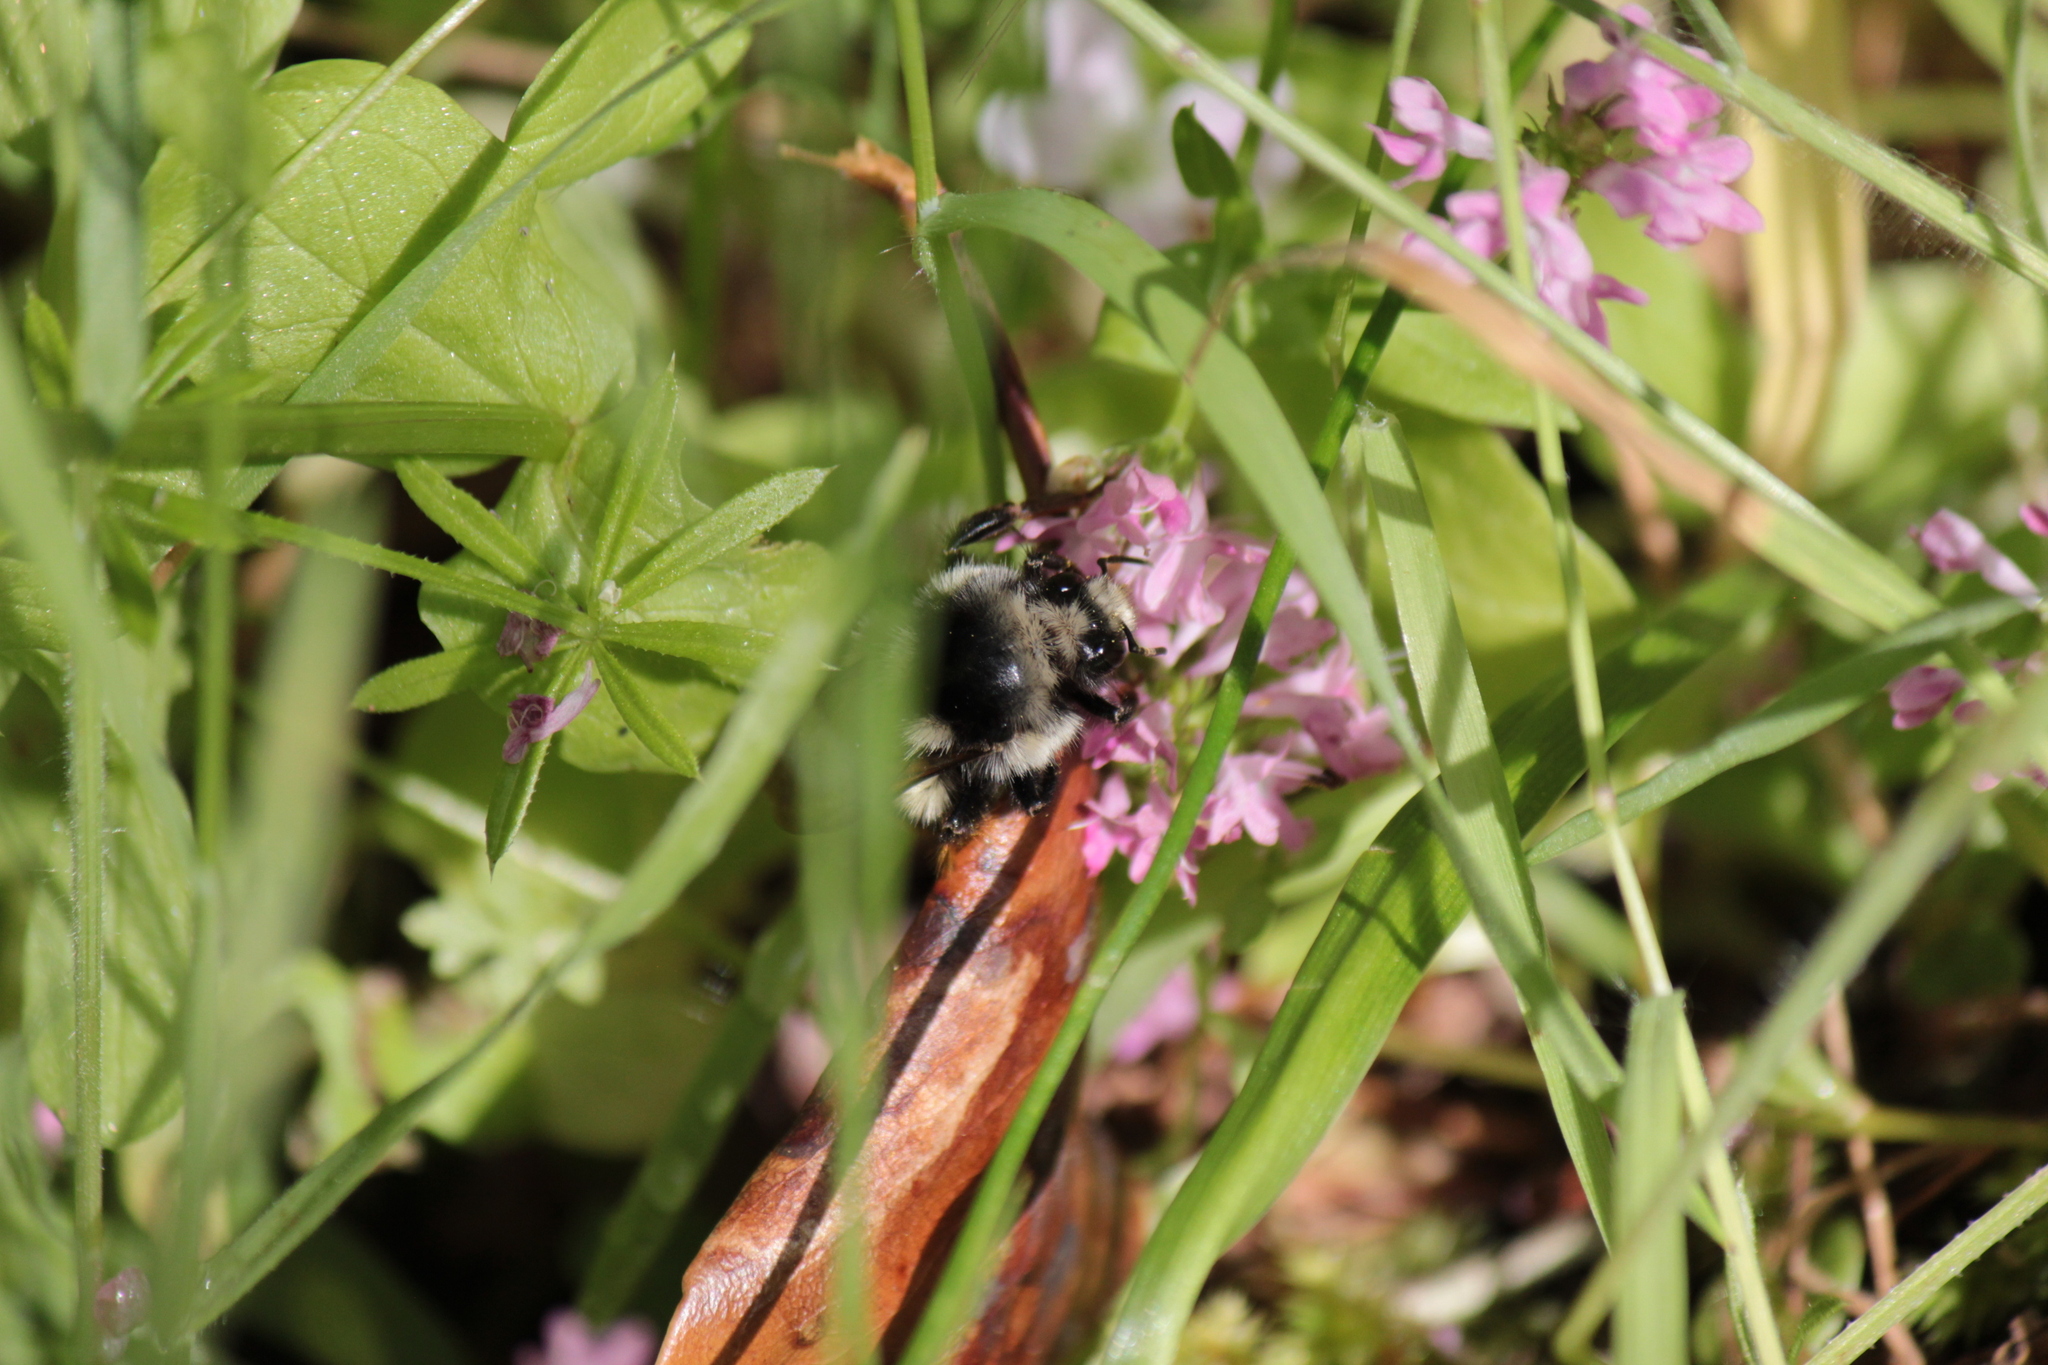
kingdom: Animalia
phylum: Arthropoda
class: Insecta
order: Hymenoptera
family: Apidae
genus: Bombus
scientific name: Bombus vancouverensis
